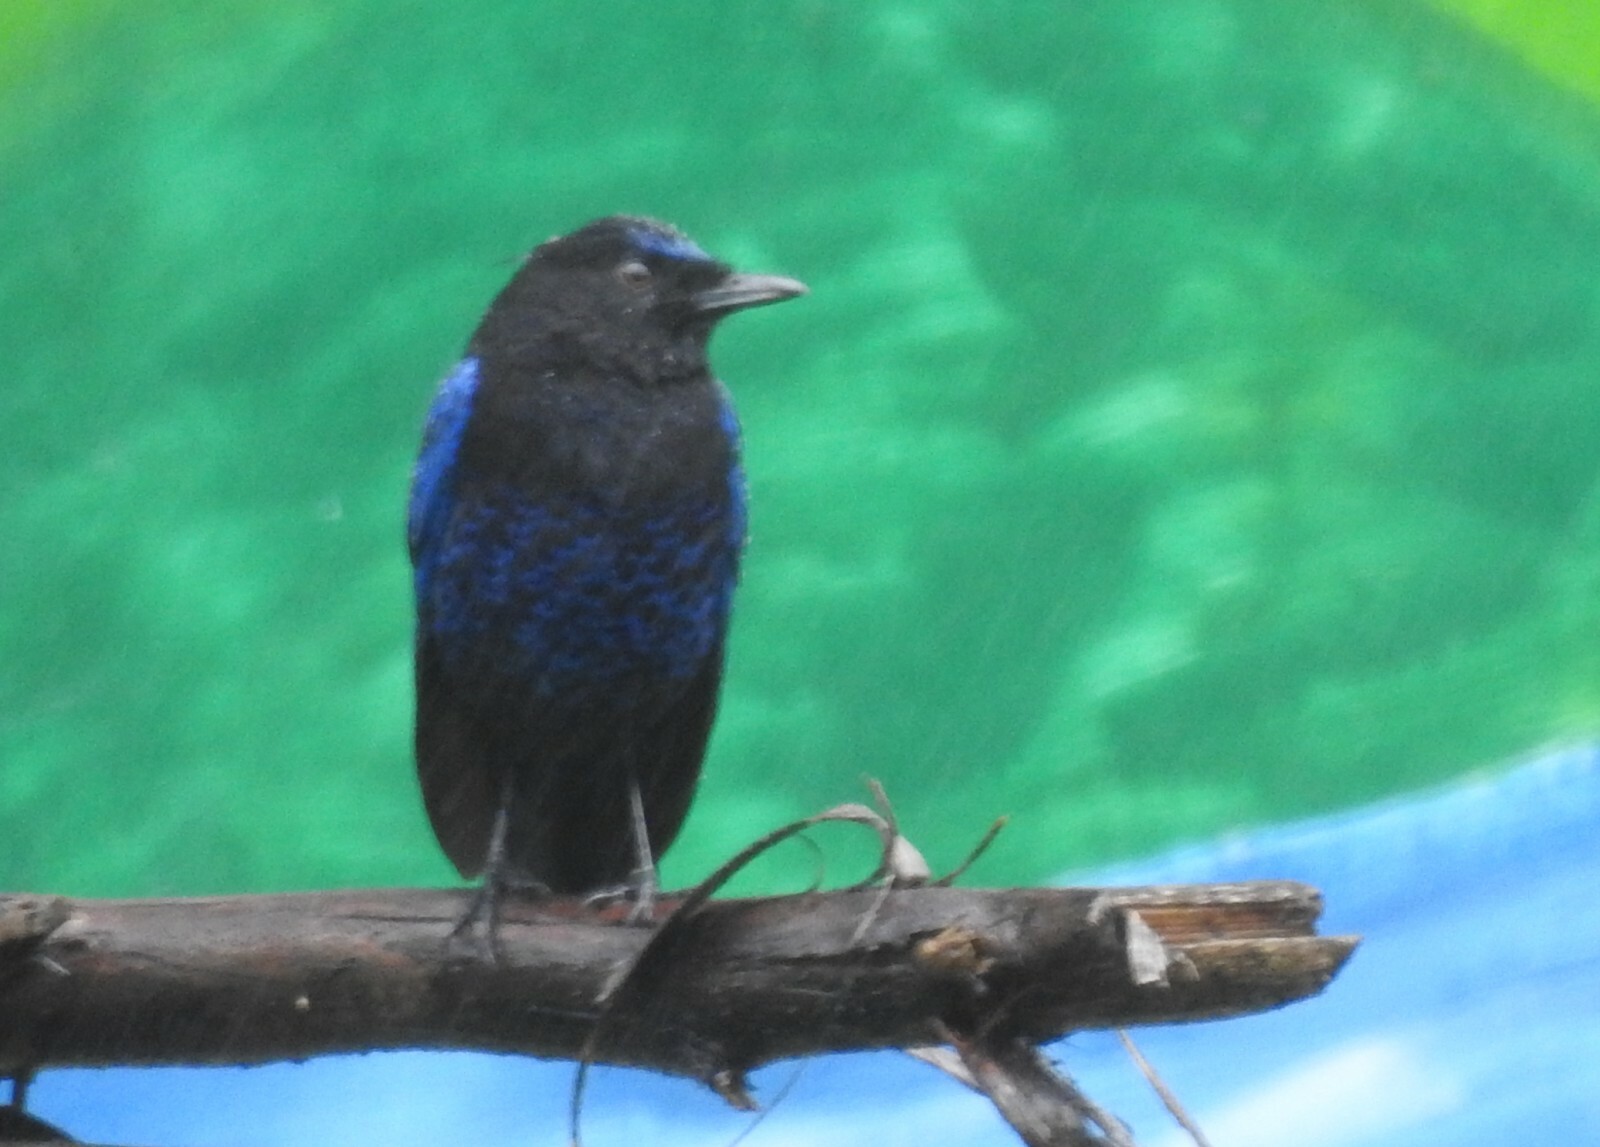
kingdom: Animalia
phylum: Chordata
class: Aves
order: Passeriformes
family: Muscicapidae
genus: Myophonus
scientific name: Myophonus horsfieldii
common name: Malabar whistling-thrush
